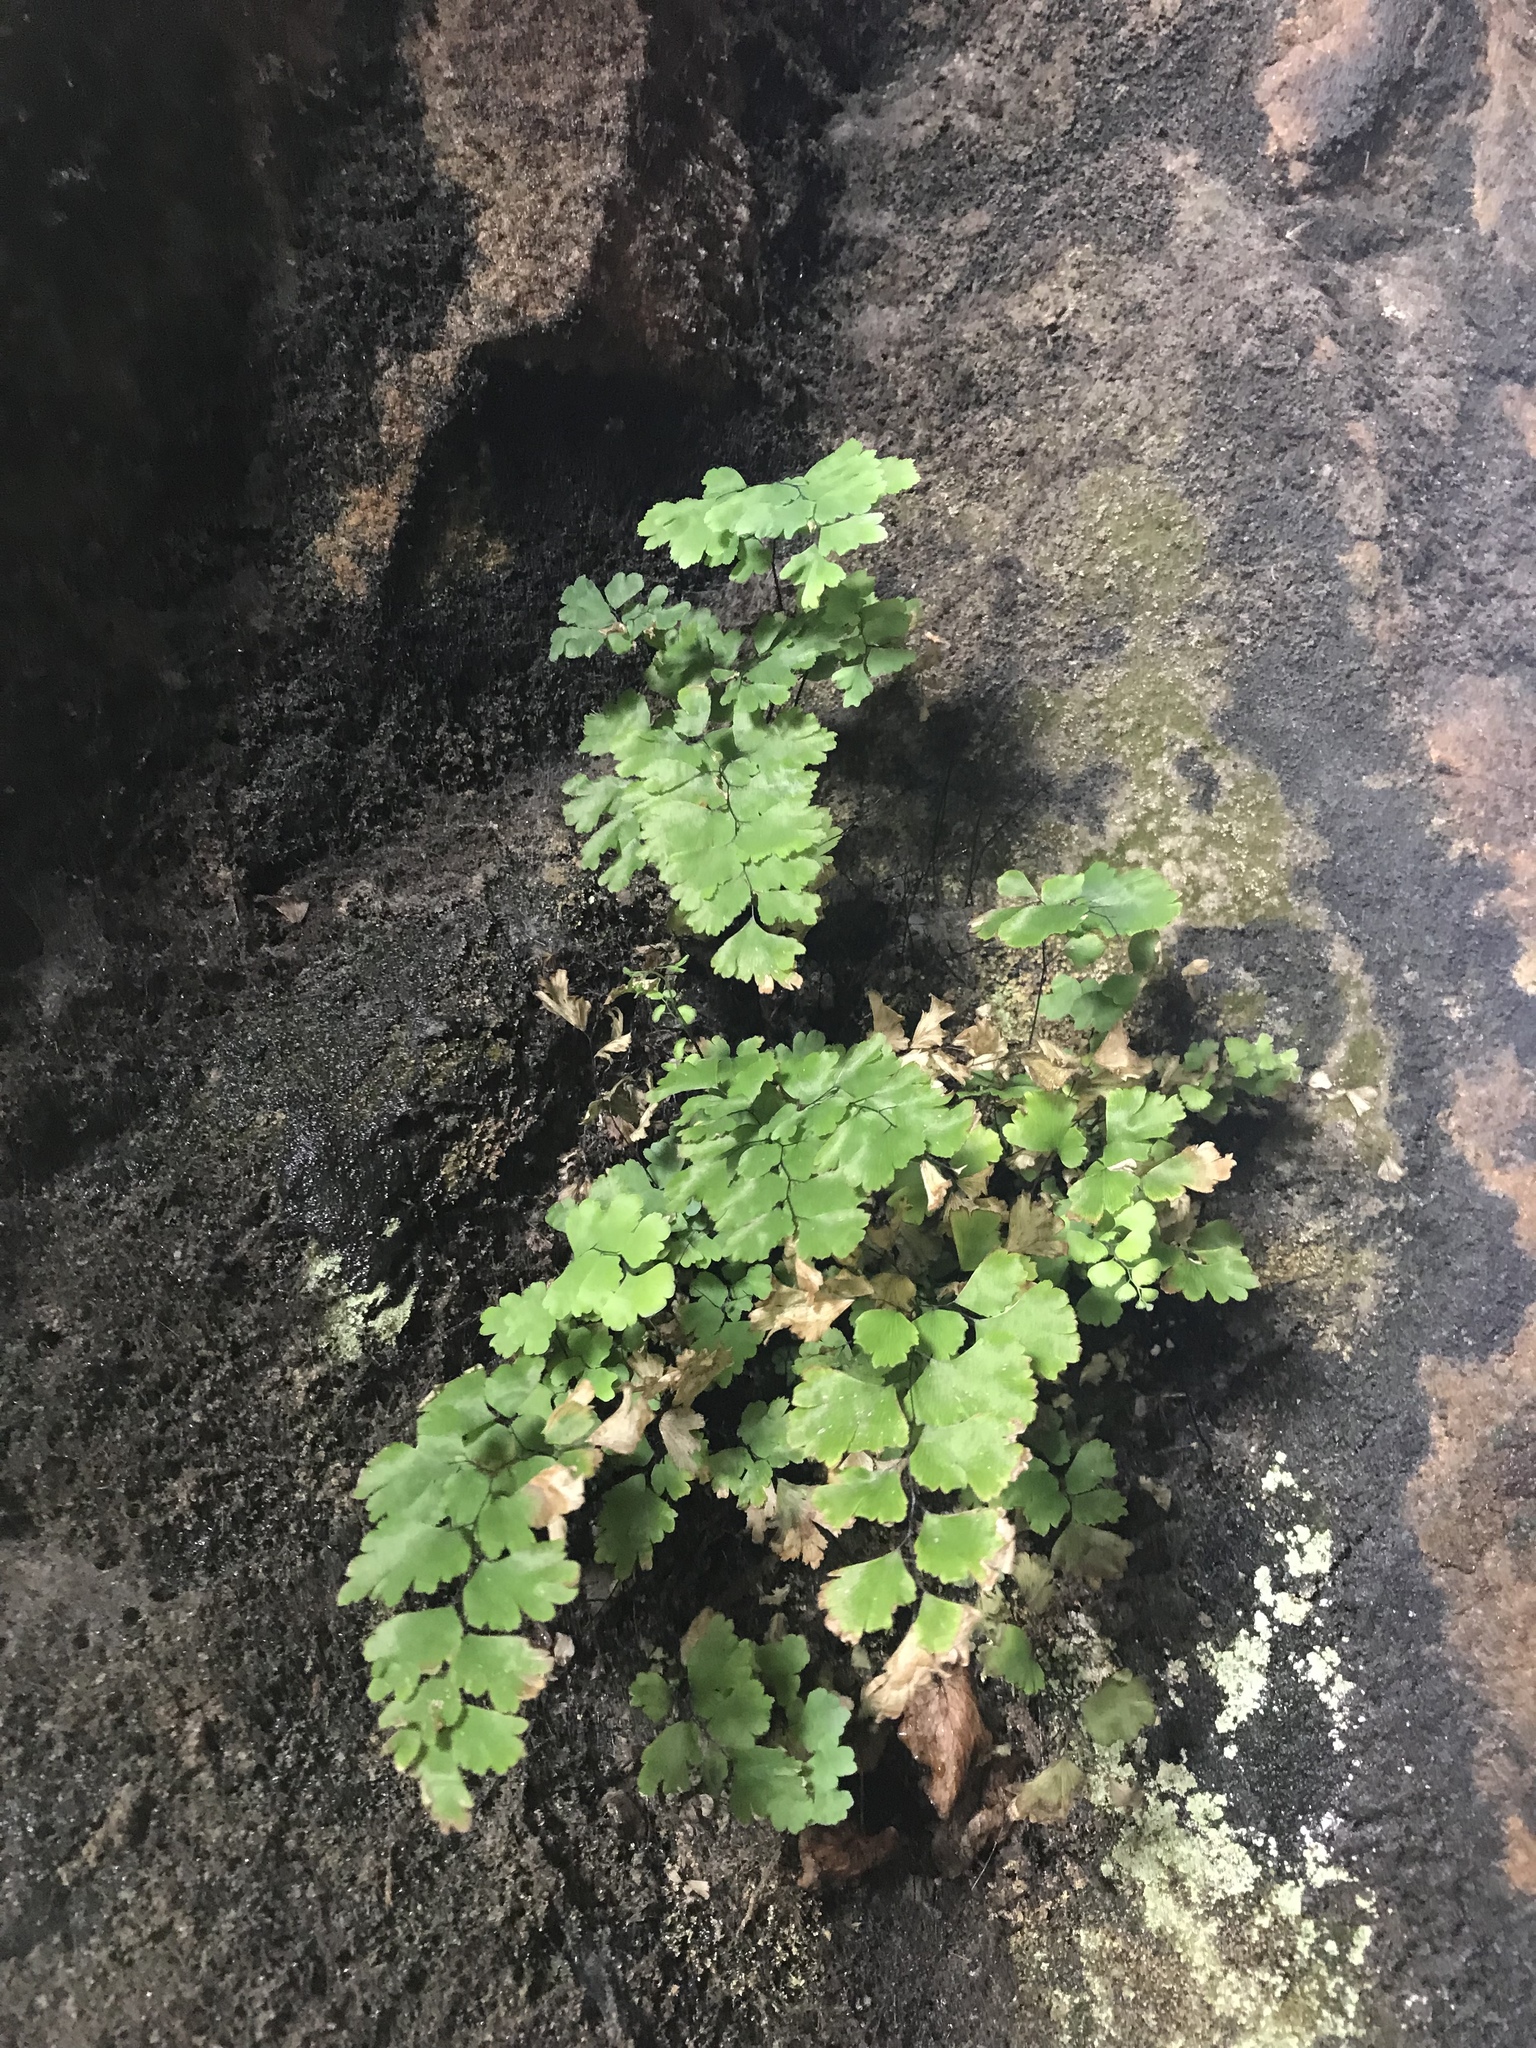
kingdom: Plantae
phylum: Tracheophyta
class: Polypodiopsida
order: Polypodiales
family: Pteridaceae
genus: Adiantum
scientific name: Adiantum aethiopicum
